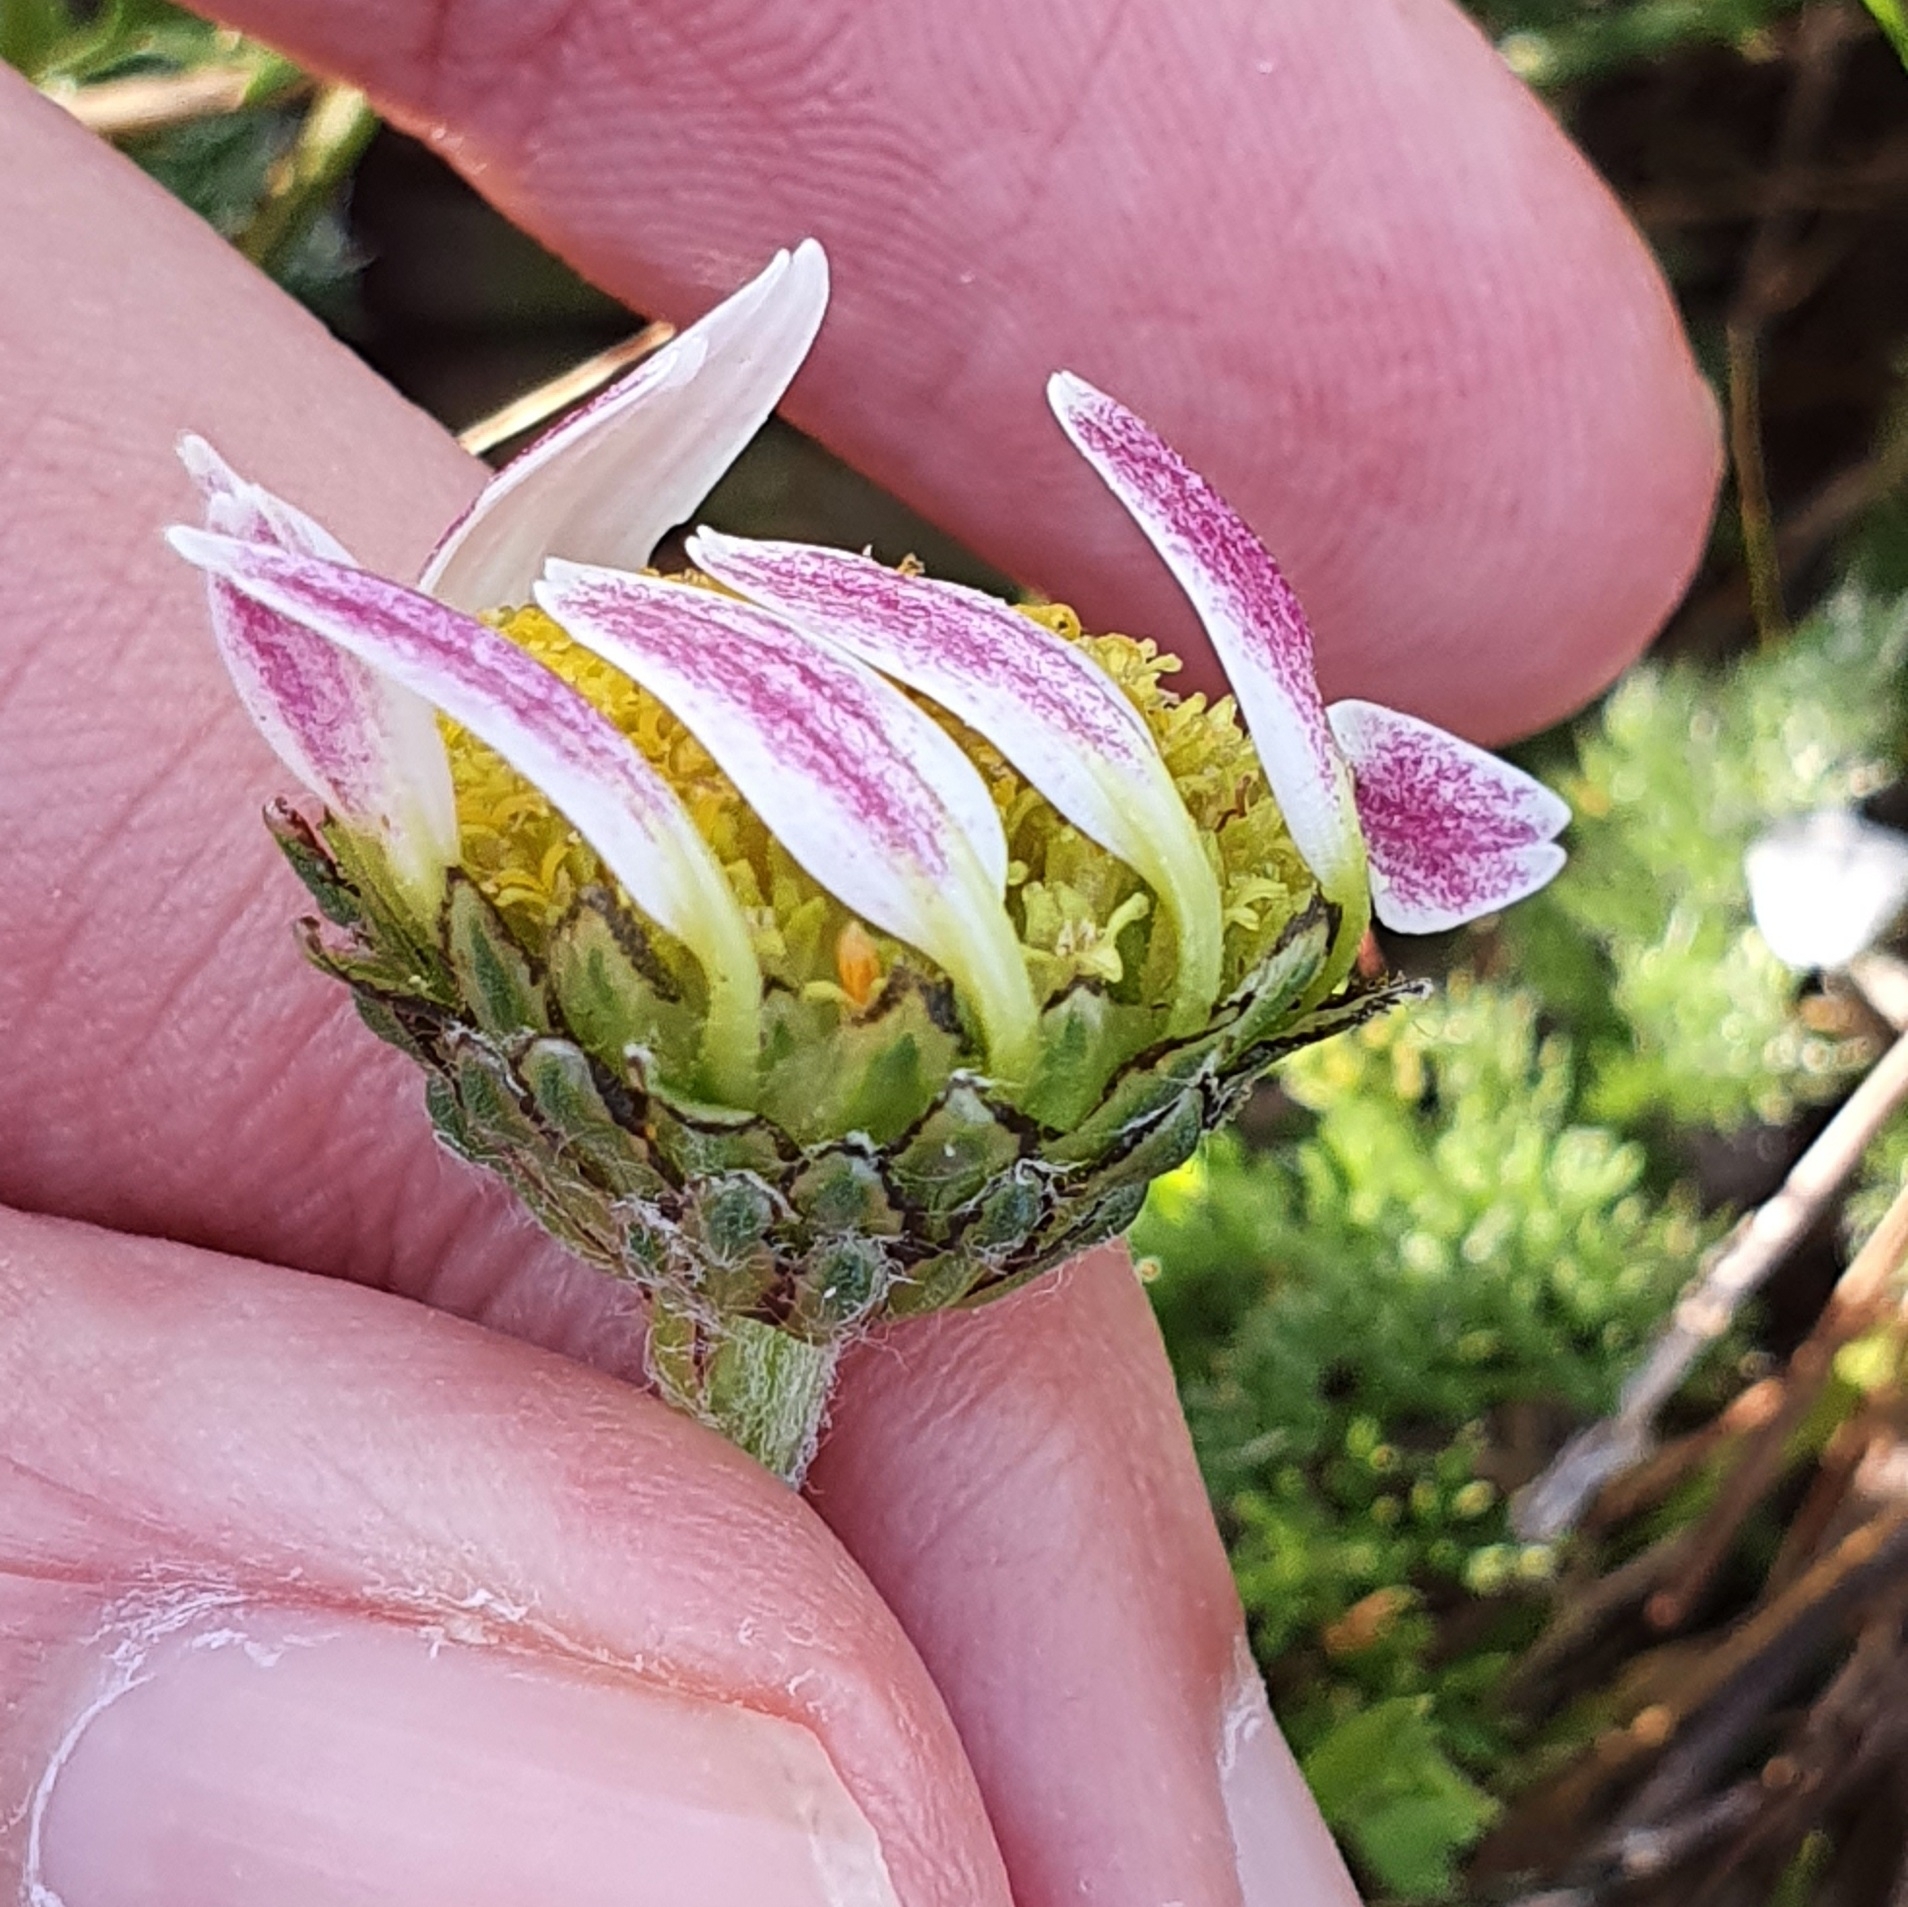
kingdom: Plantae
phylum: Tracheophyta
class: Magnoliopsida
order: Asterales
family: Asteraceae
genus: Anacyclus
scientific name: Anacyclus pyrethrum
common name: Mt. atlas daisy
